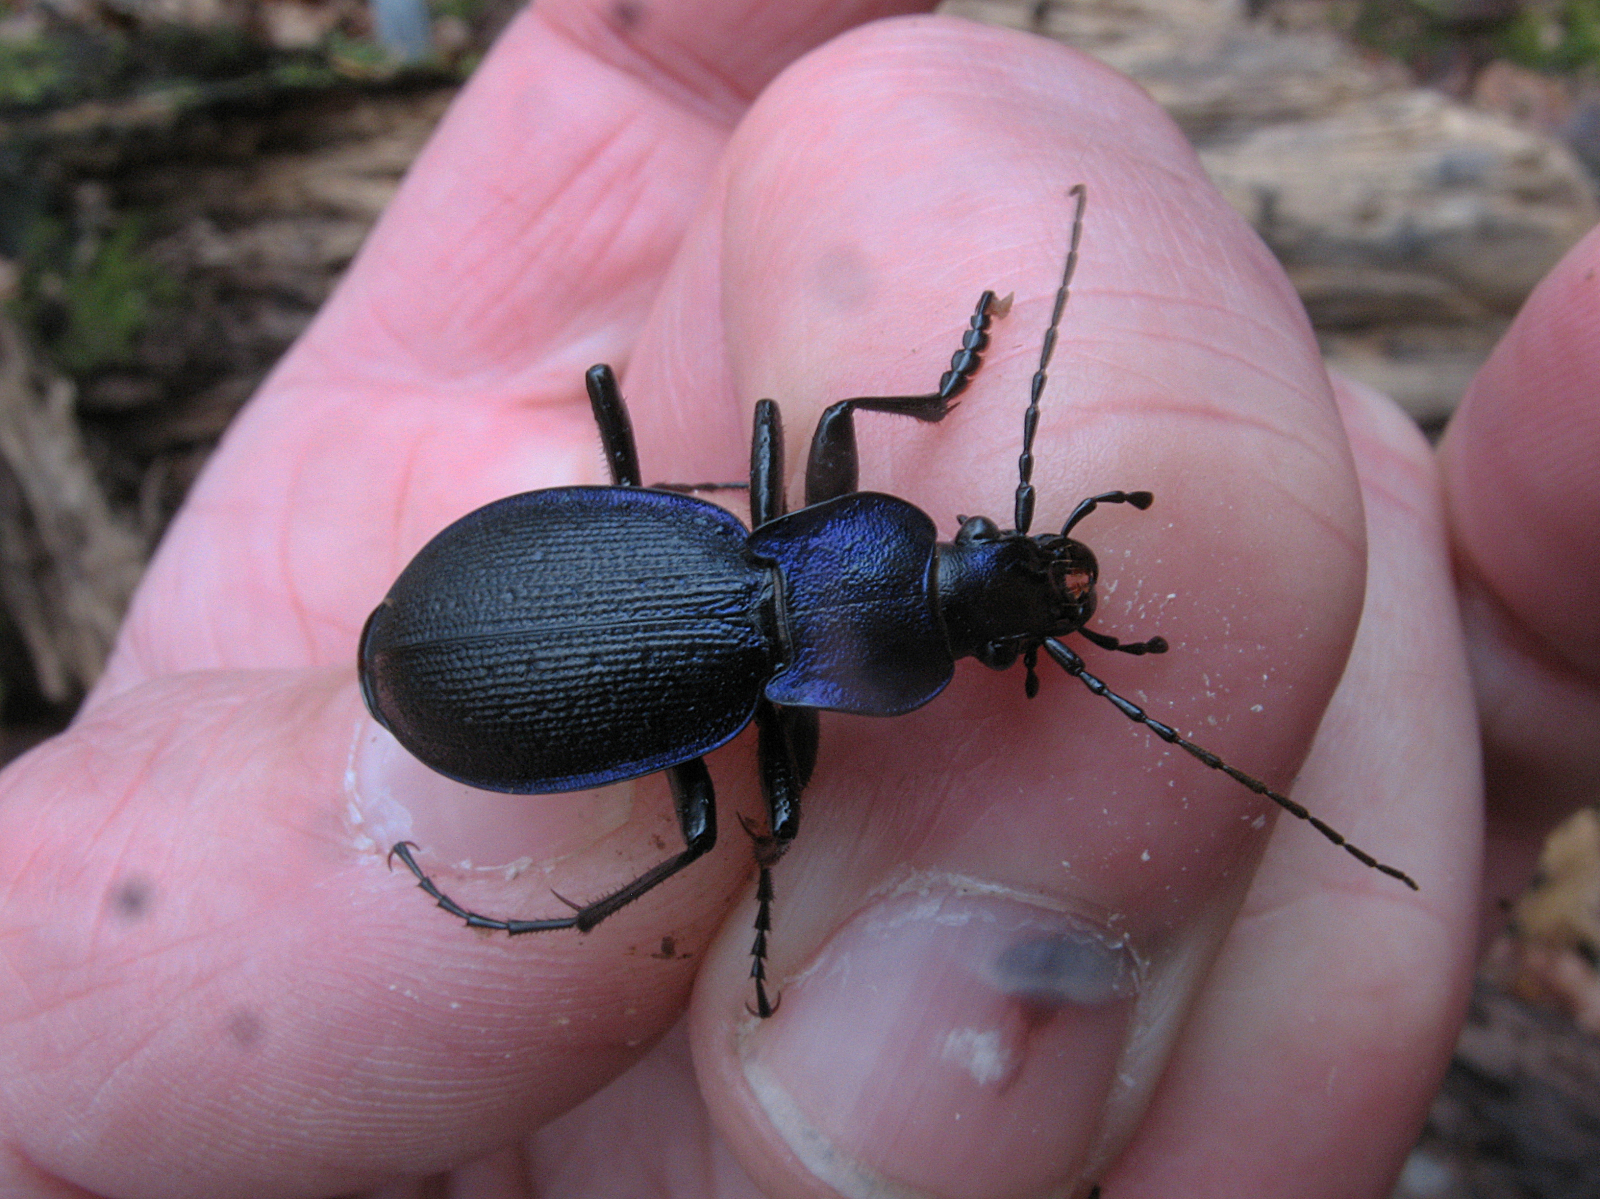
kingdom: Animalia
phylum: Arthropoda
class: Insecta
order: Coleoptera
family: Carabidae
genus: Carabus
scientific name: Carabus problematicus
